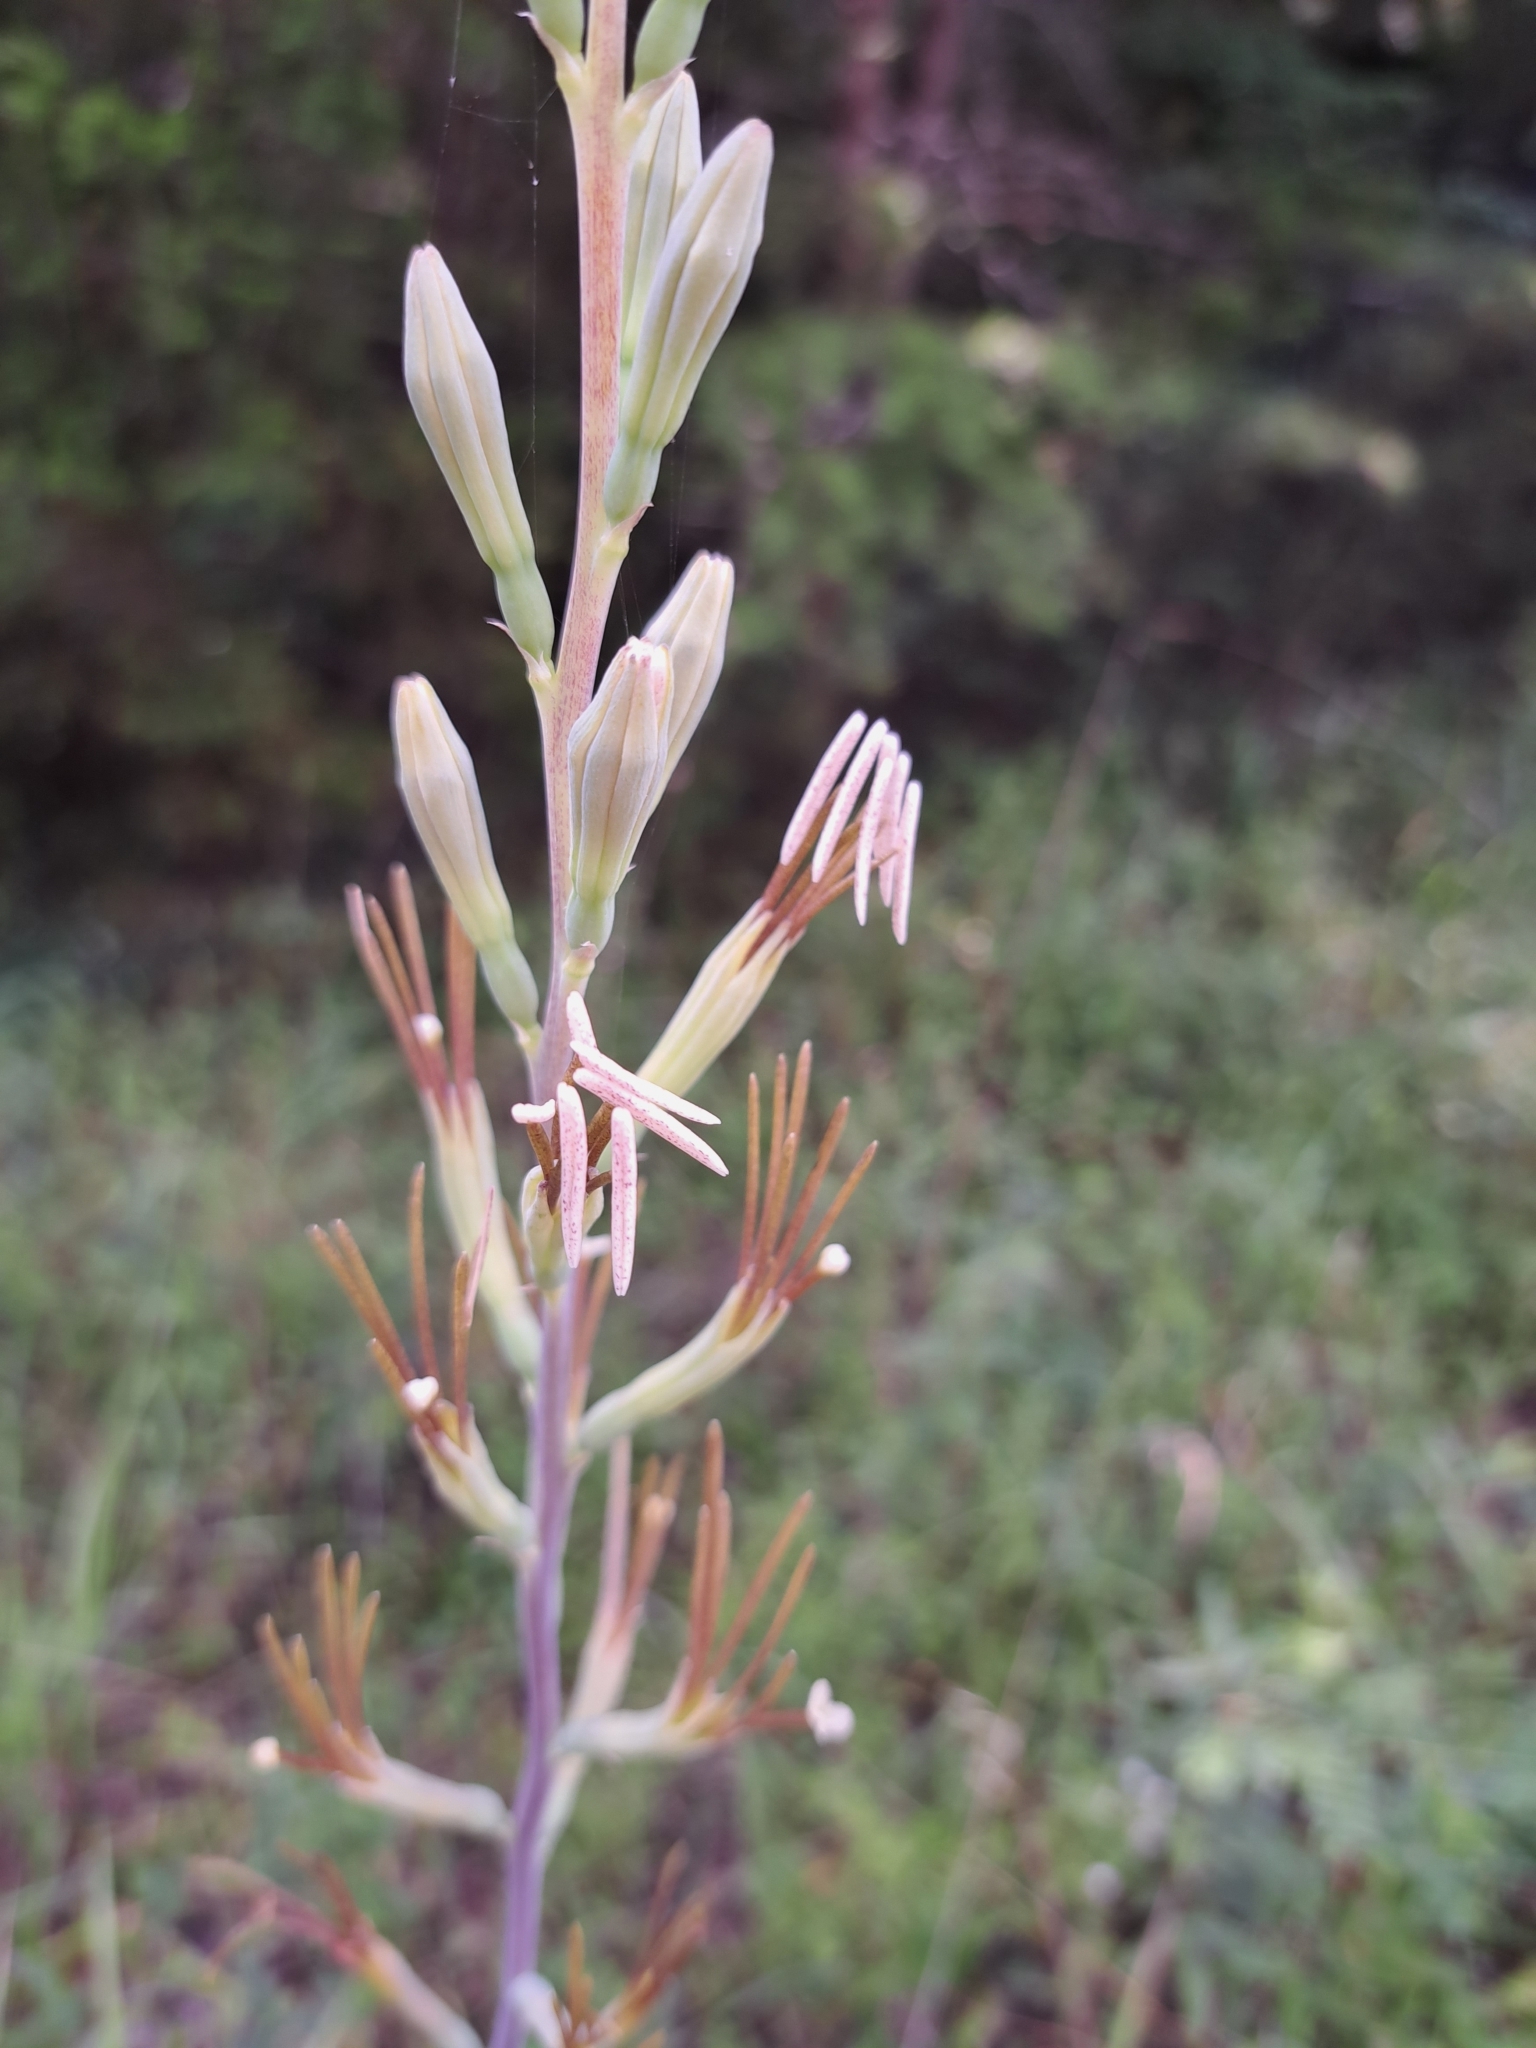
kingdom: Plantae
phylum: Tracheophyta
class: Liliopsida
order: Asparagales
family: Asparagaceae
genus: Agave
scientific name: Agave virginica
